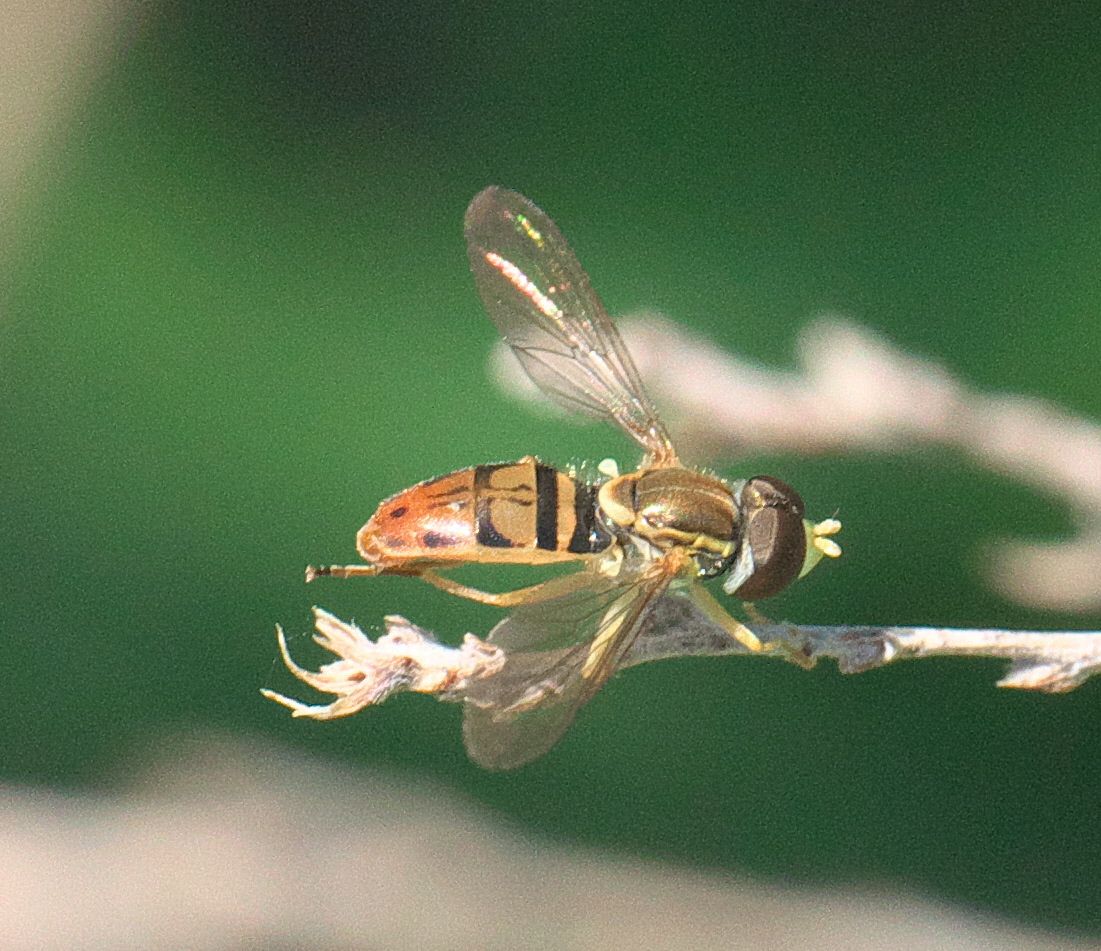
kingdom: Animalia
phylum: Arthropoda
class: Insecta
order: Diptera
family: Syrphidae
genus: Toxomerus
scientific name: Toxomerus marginatus
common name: Syrphid fly
